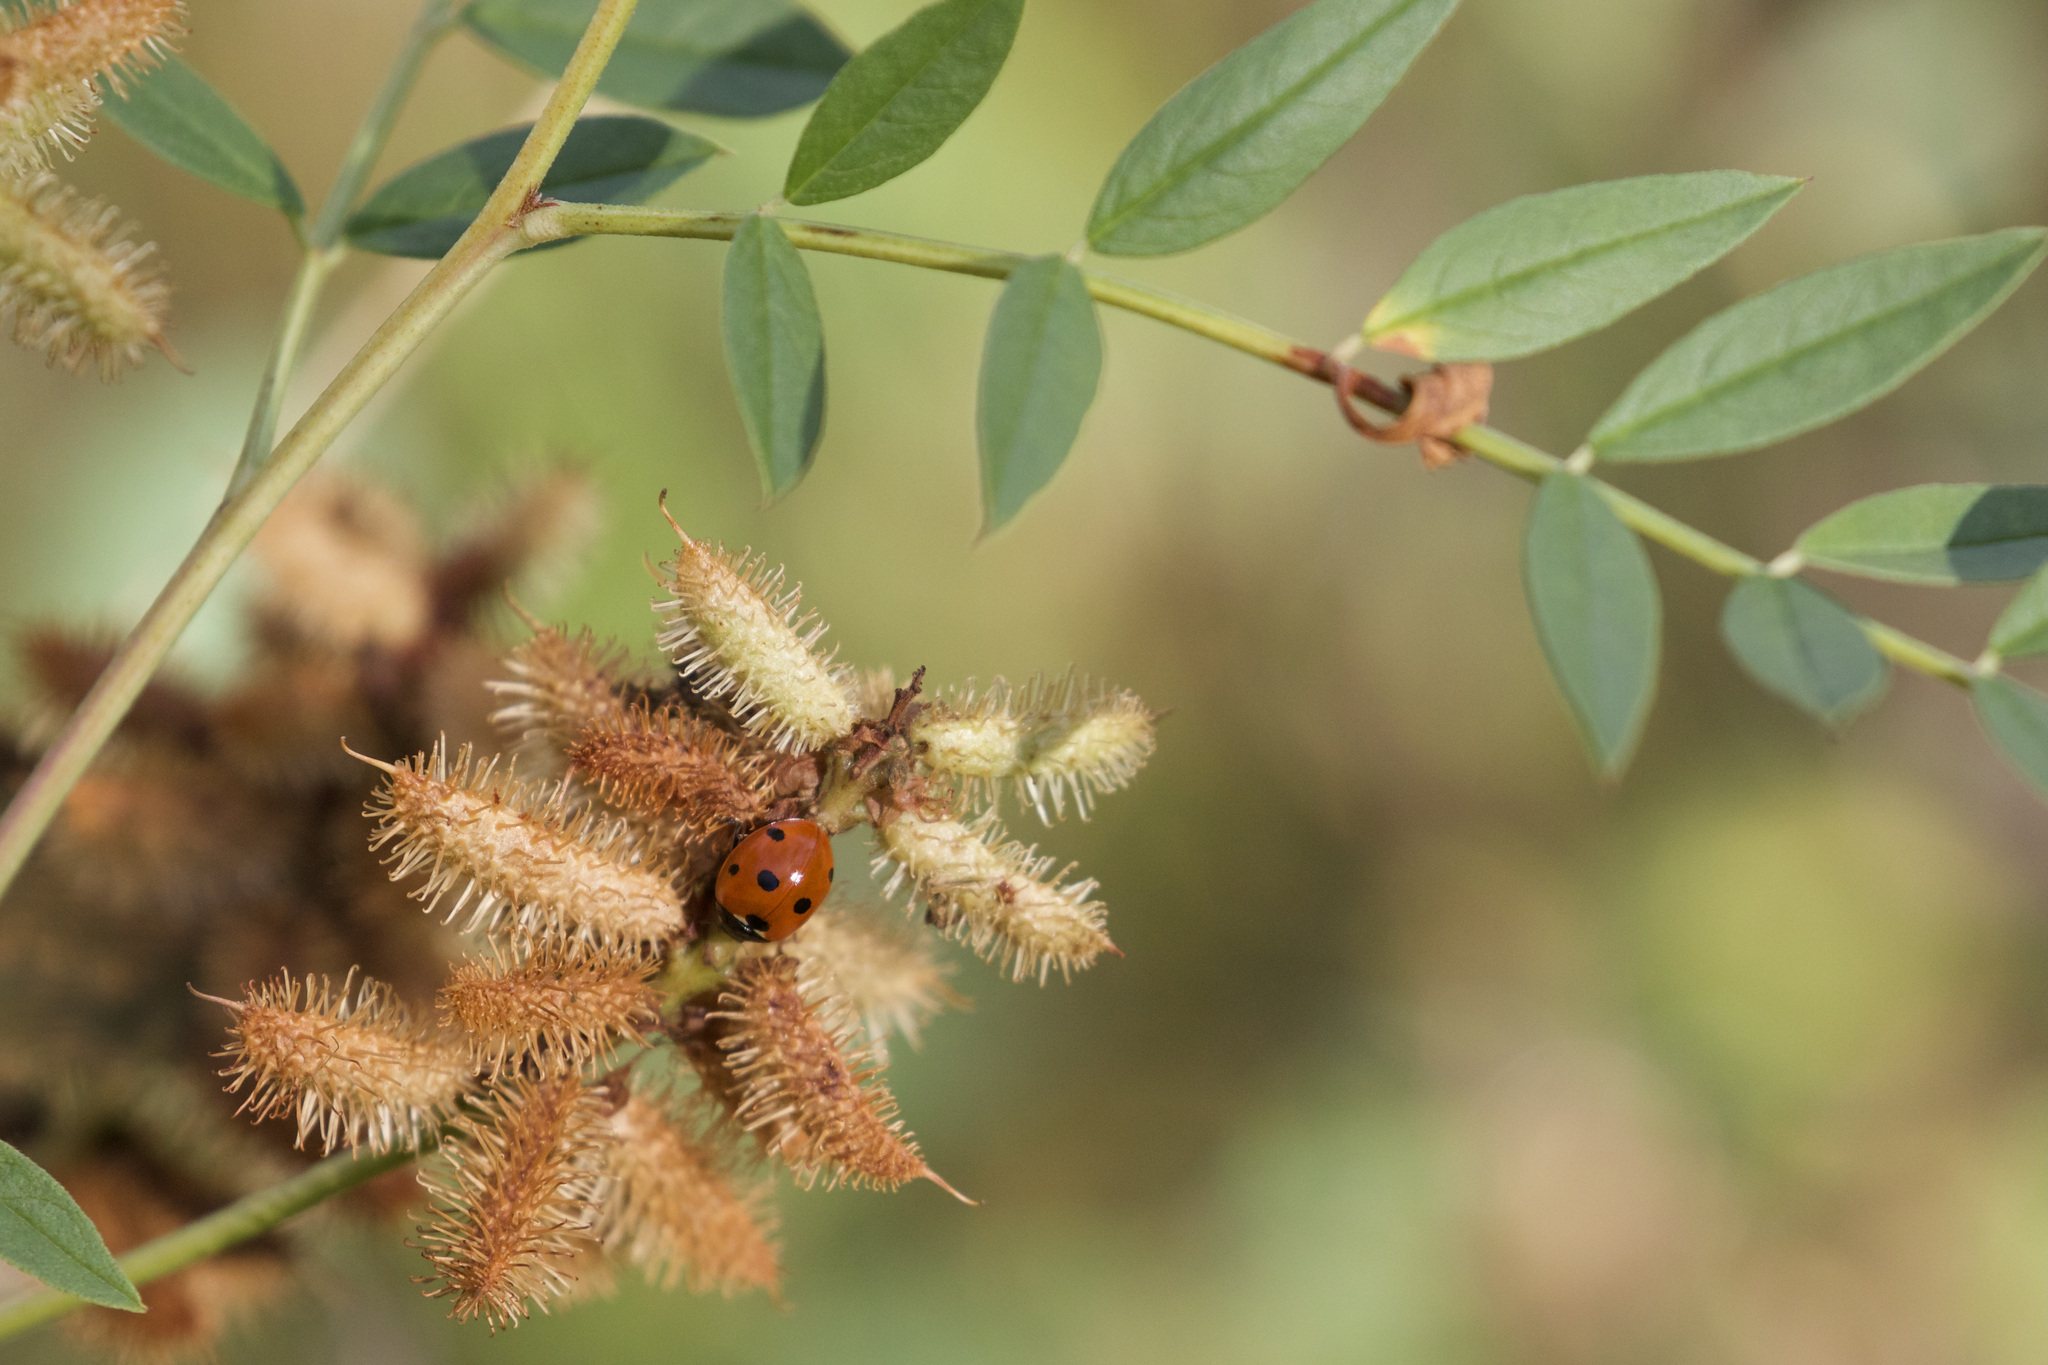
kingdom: Animalia
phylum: Arthropoda
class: Insecta
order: Coleoptera
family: Coccinellidae
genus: Coccinella
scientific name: Coccinella septempunctata
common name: Sevenspotted lady beetle
